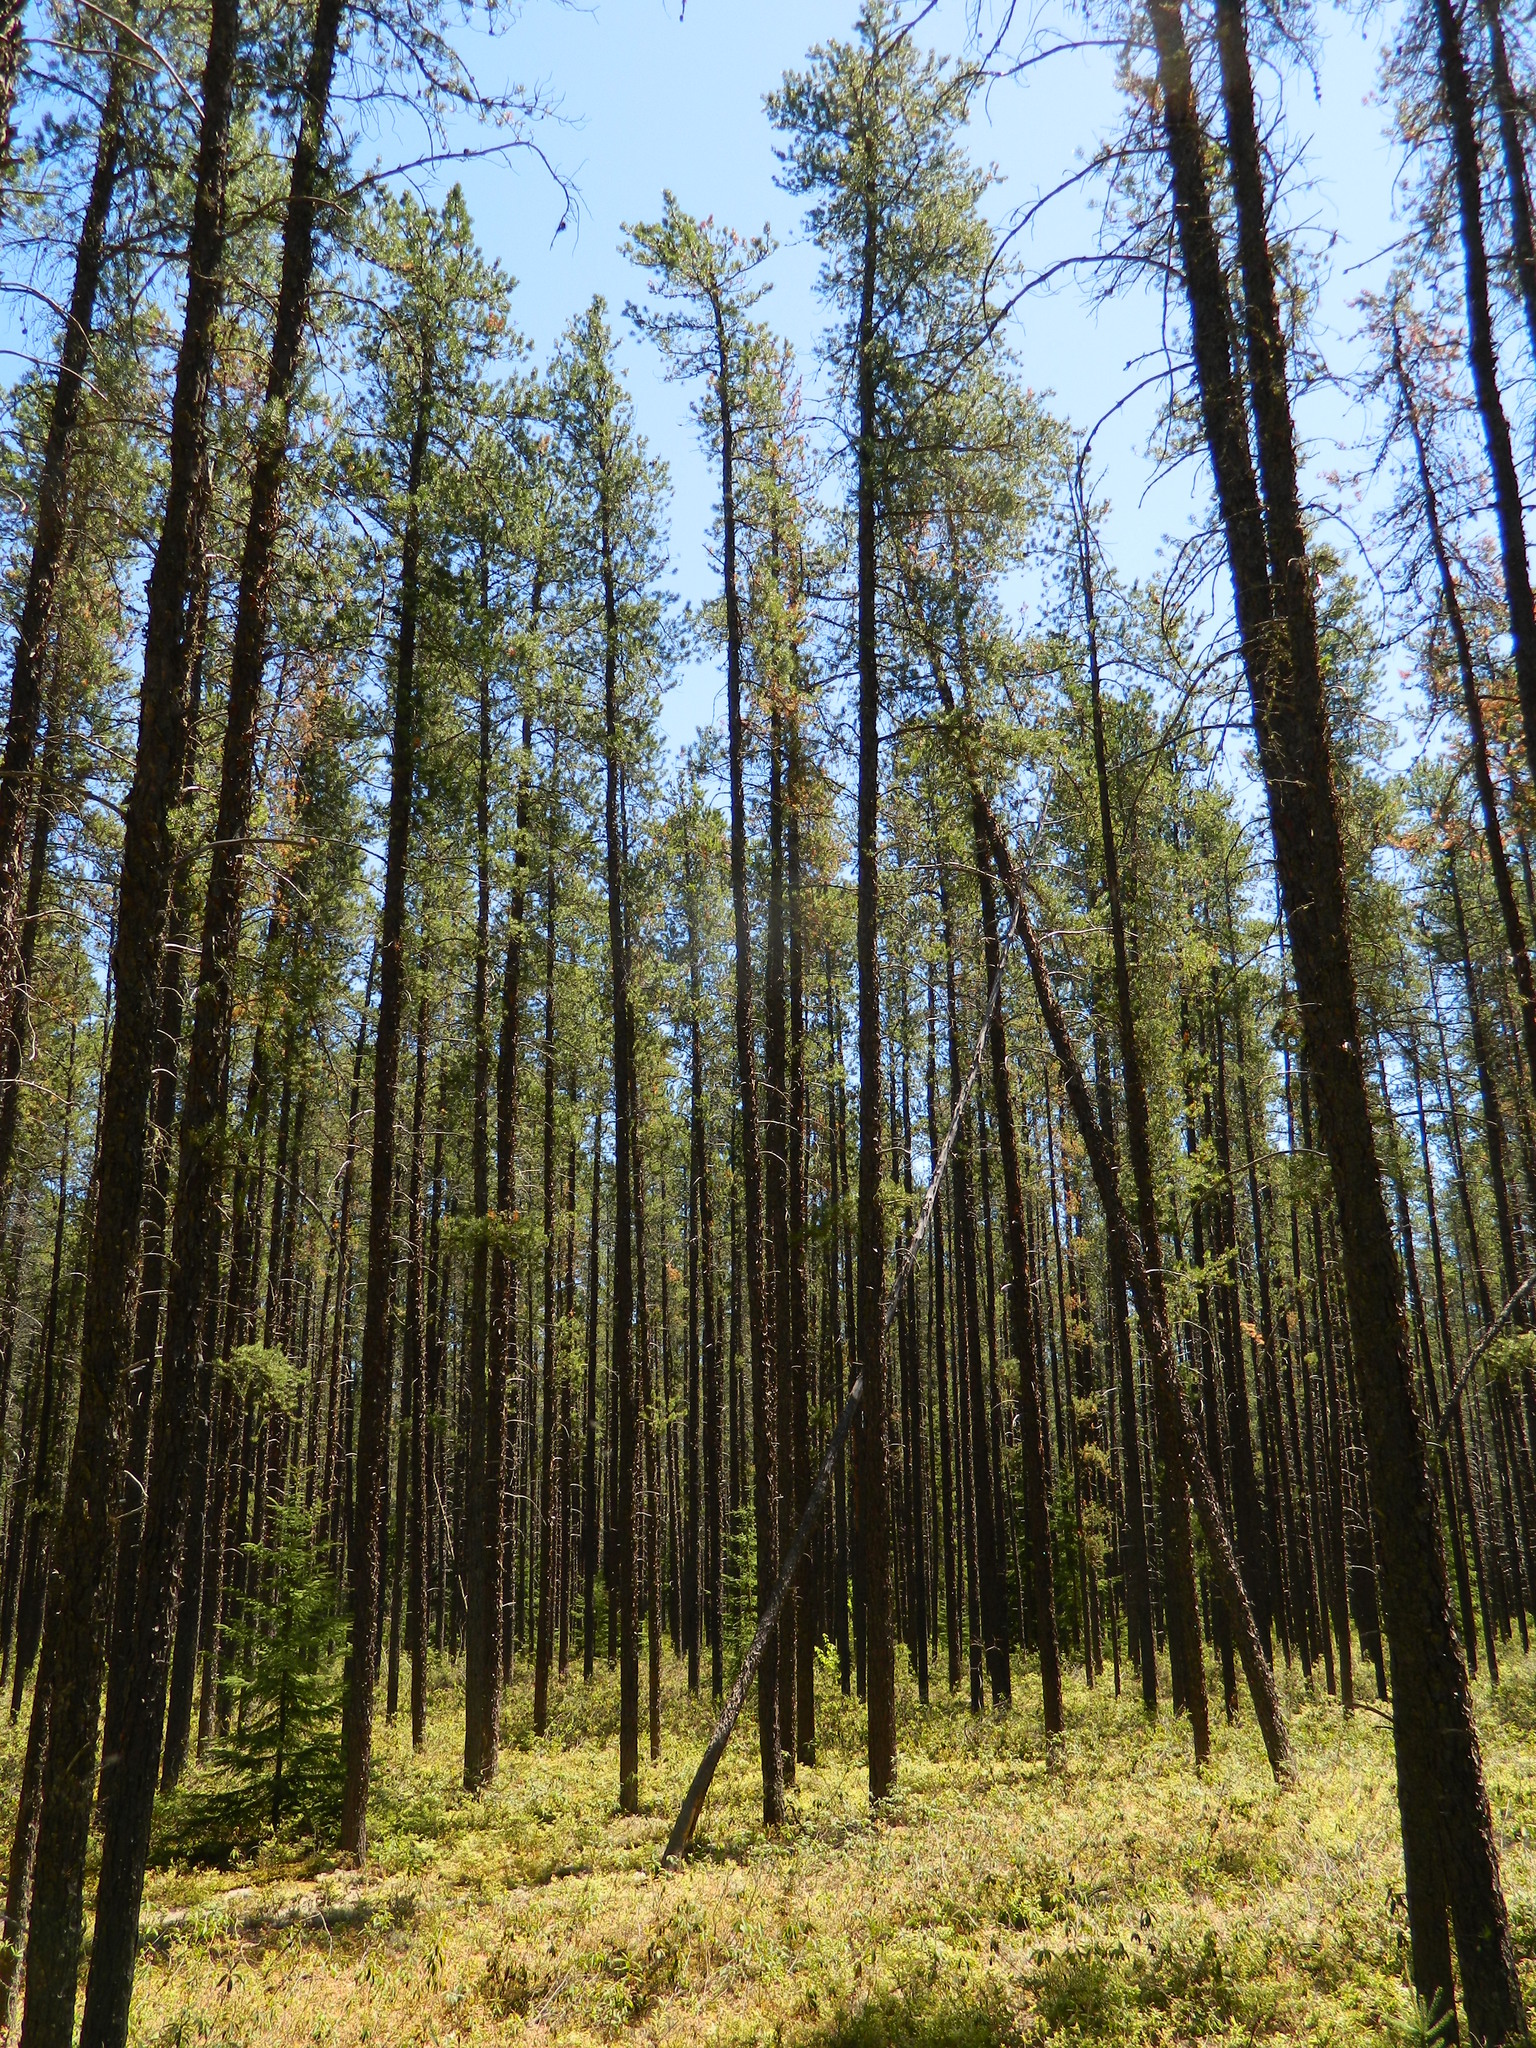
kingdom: Plantae
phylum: Tracheophyta
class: Pinopsida
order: Pinales
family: Pinaceae
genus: Pinus
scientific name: Pinus banksiana
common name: Jack pine
